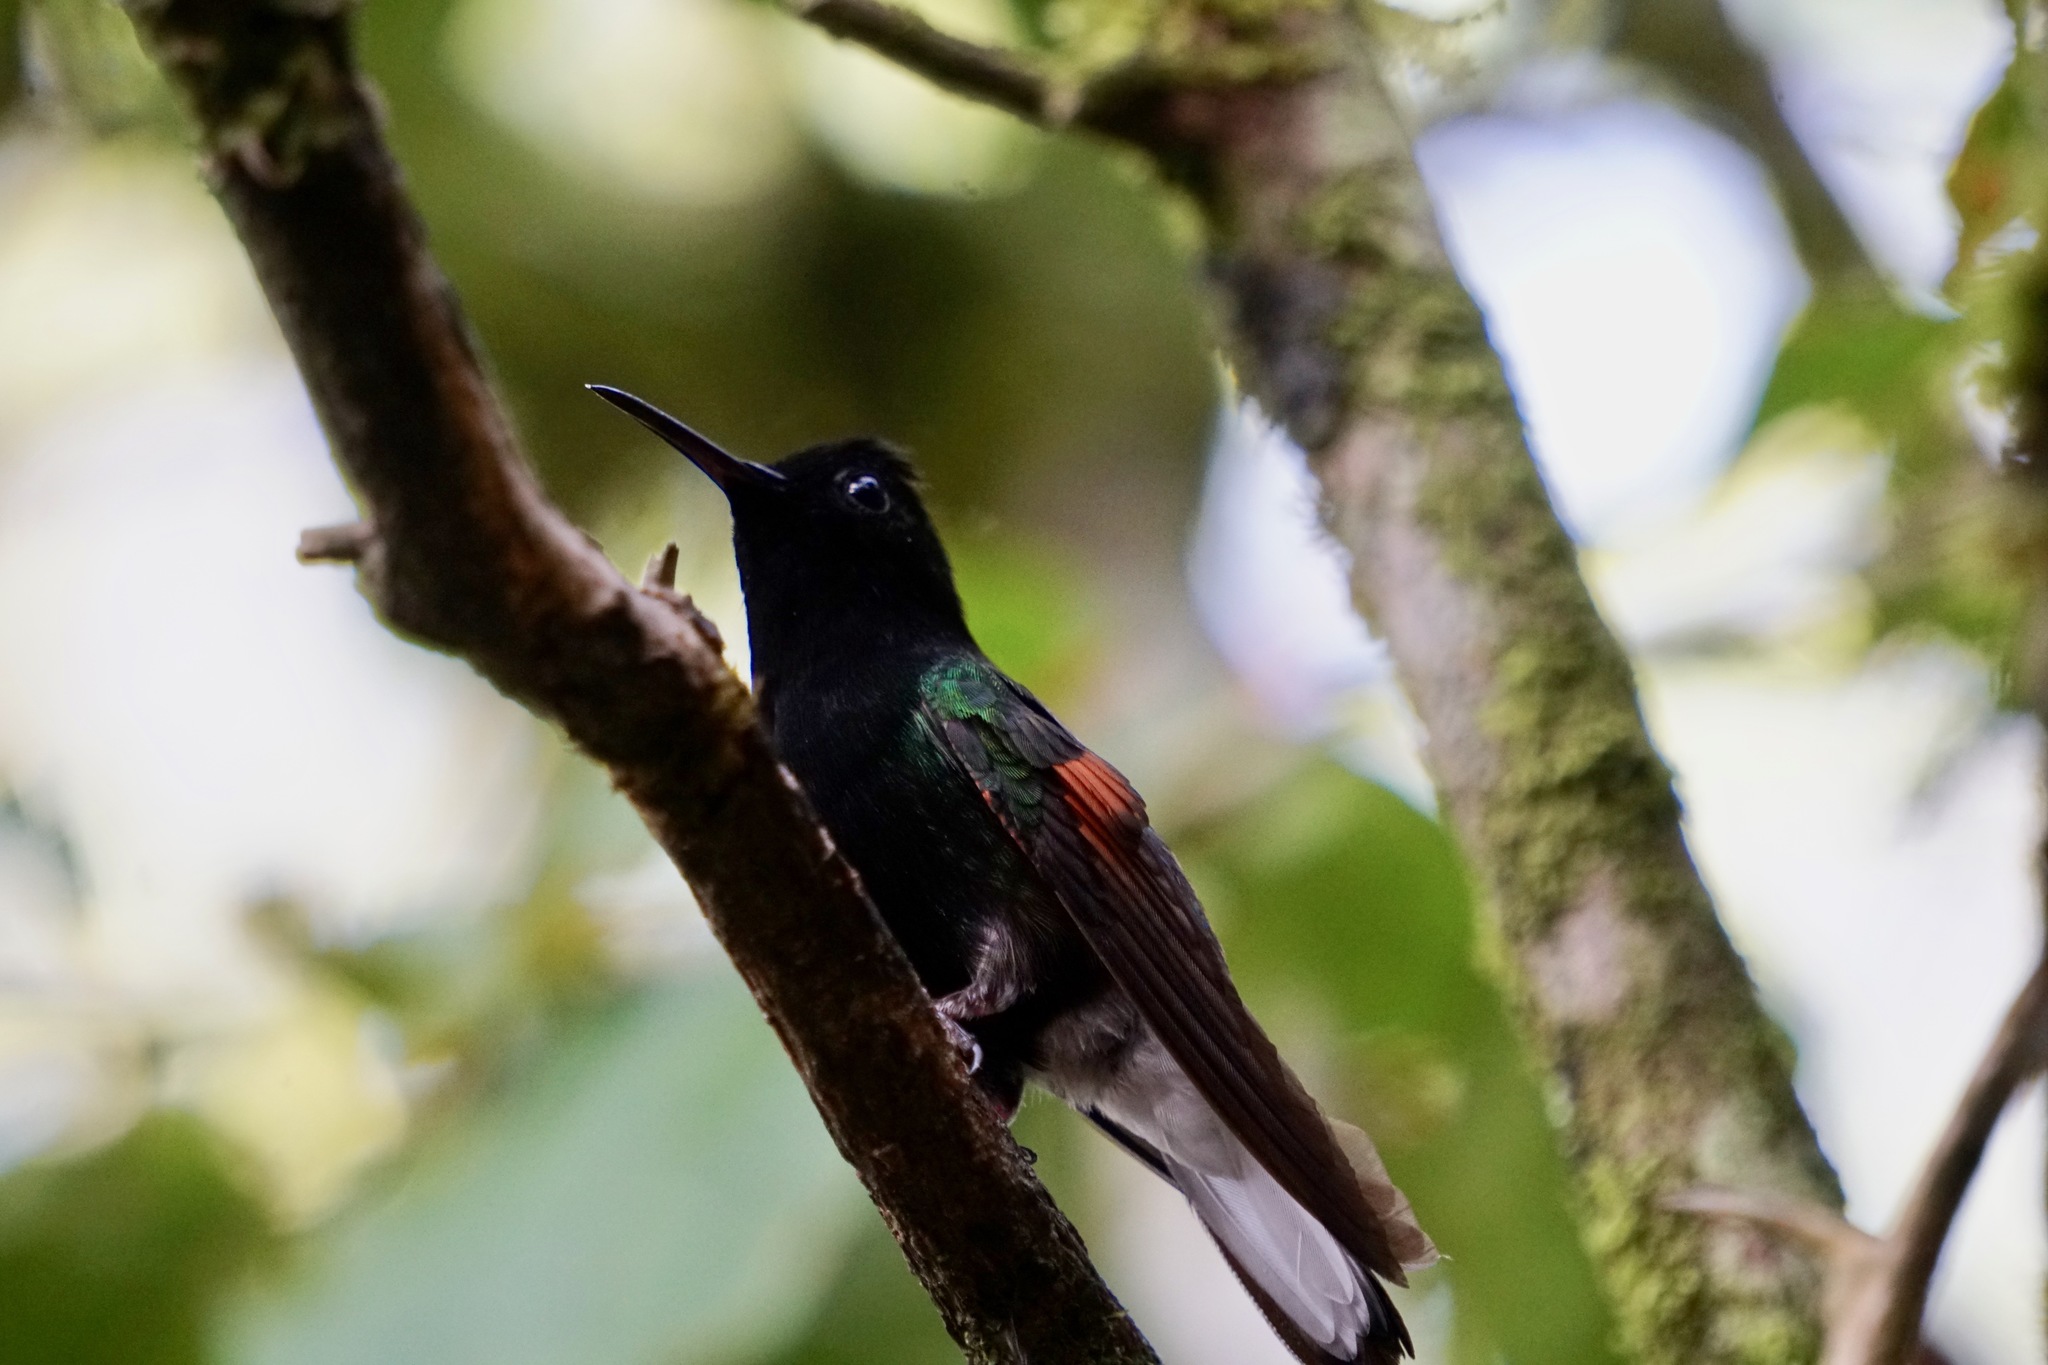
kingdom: Animalia
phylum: Chordata
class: Aves
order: Apodiformes
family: Trochilidae
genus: Eupherusa
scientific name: Eupherusa nigriventris
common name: Black-bellied hummingbird
